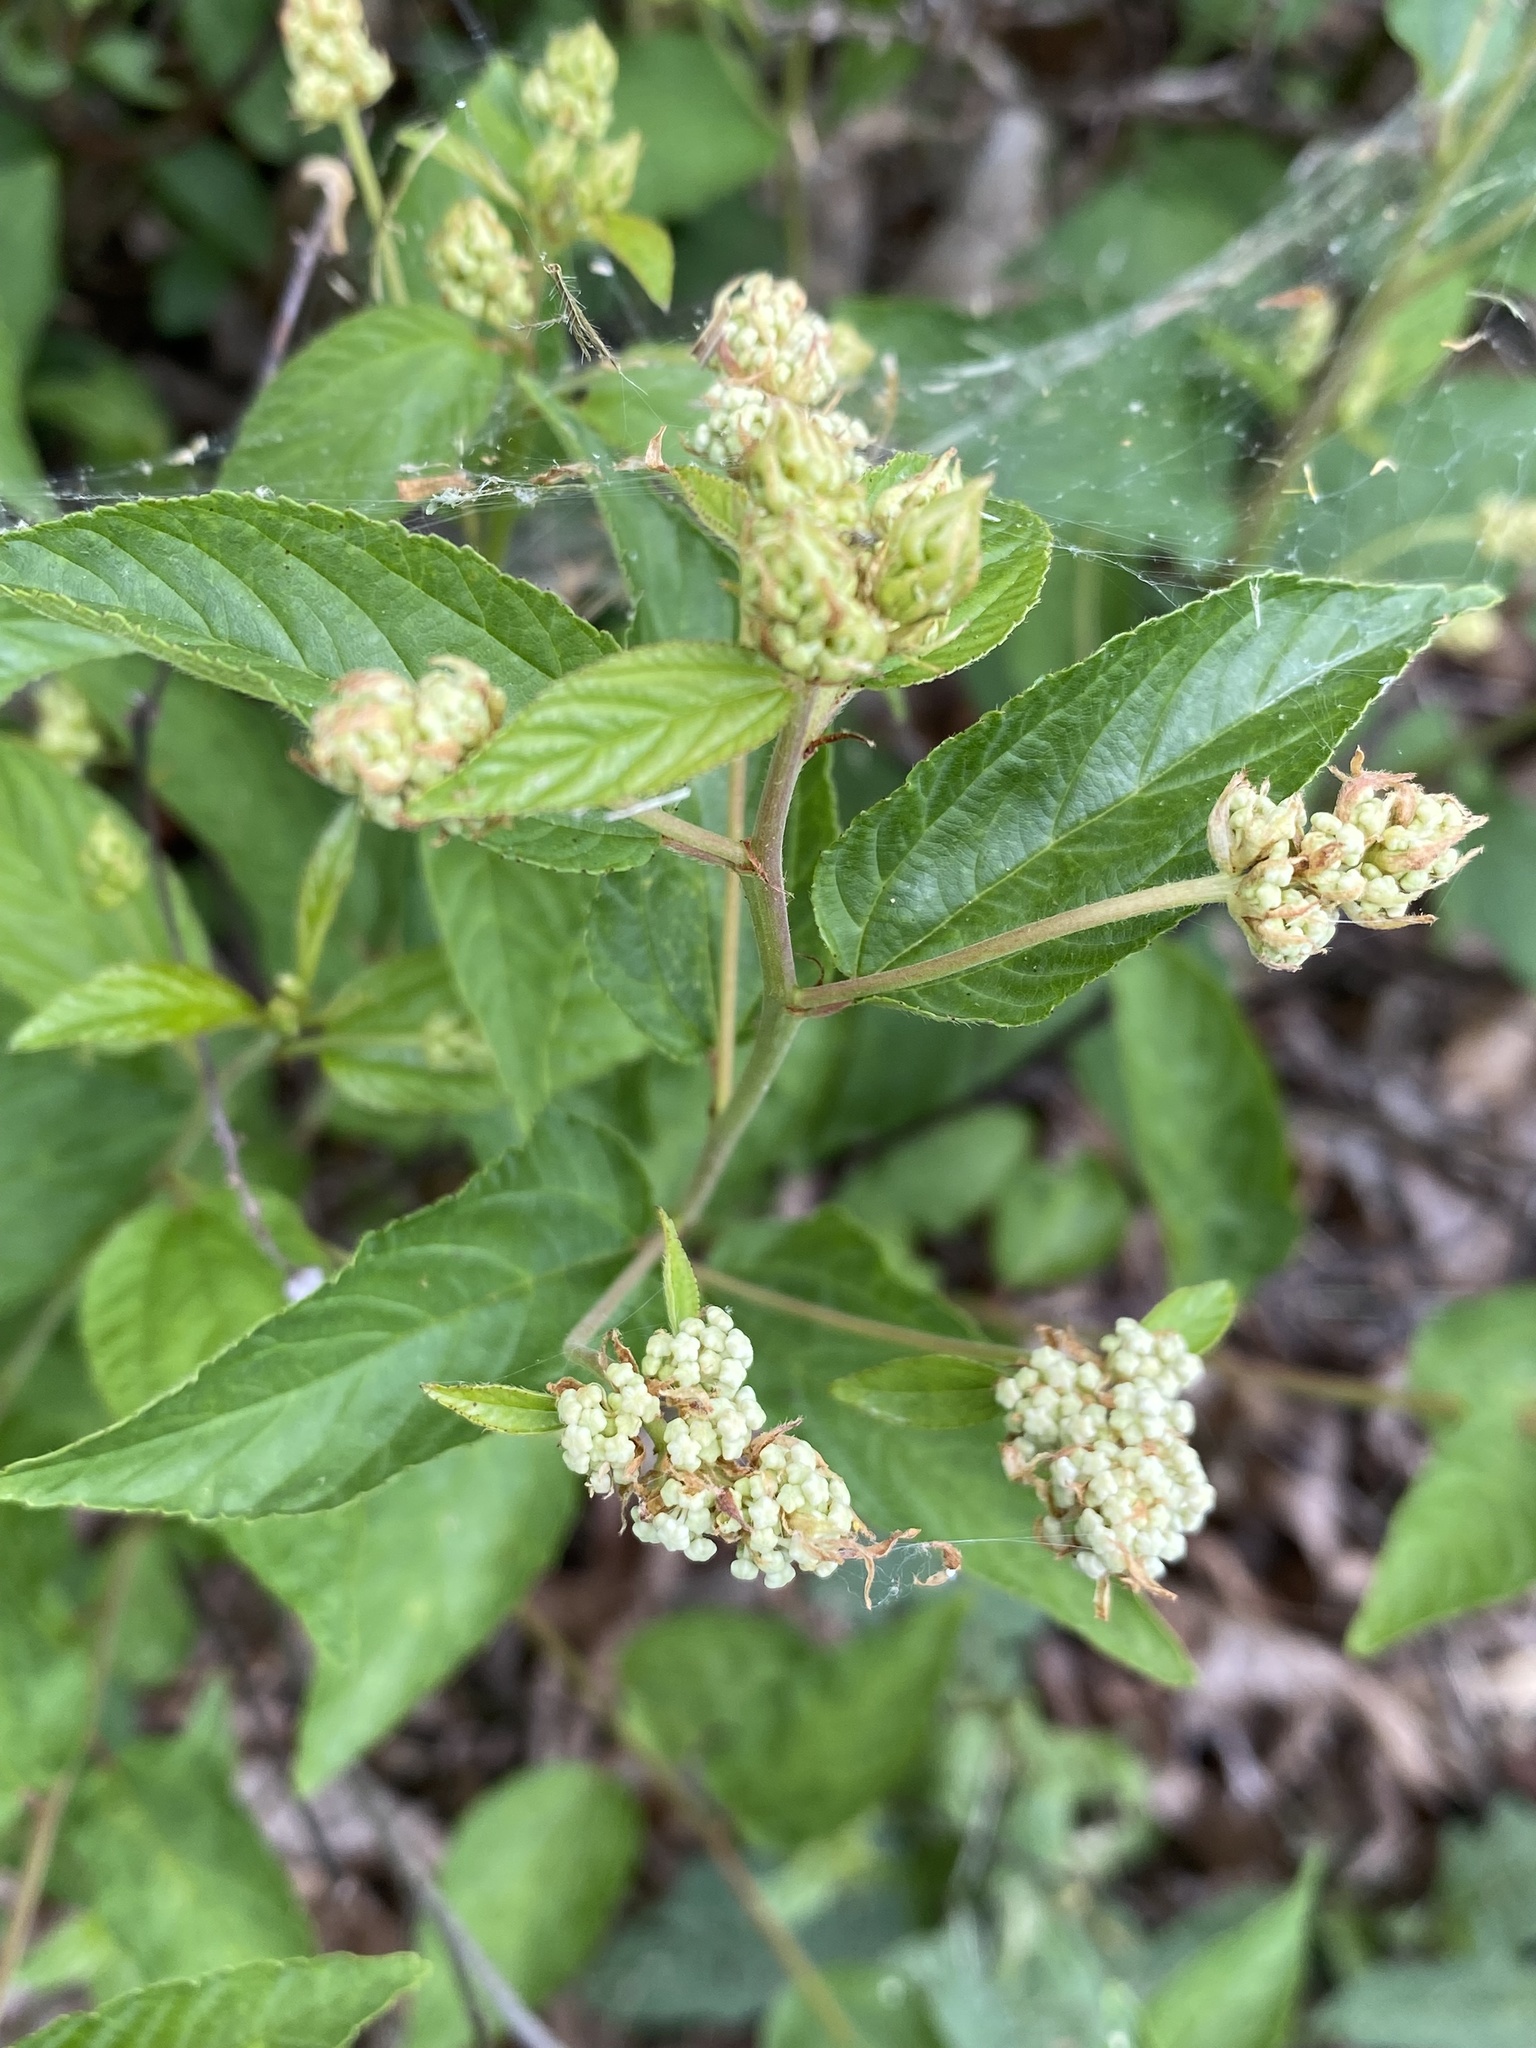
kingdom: Plantae
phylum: Tracheophyta
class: Magnoliopsida
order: Rosales
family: Rhamnaceae
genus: Ceanothus
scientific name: Ceanothus americanus
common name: Redroot
